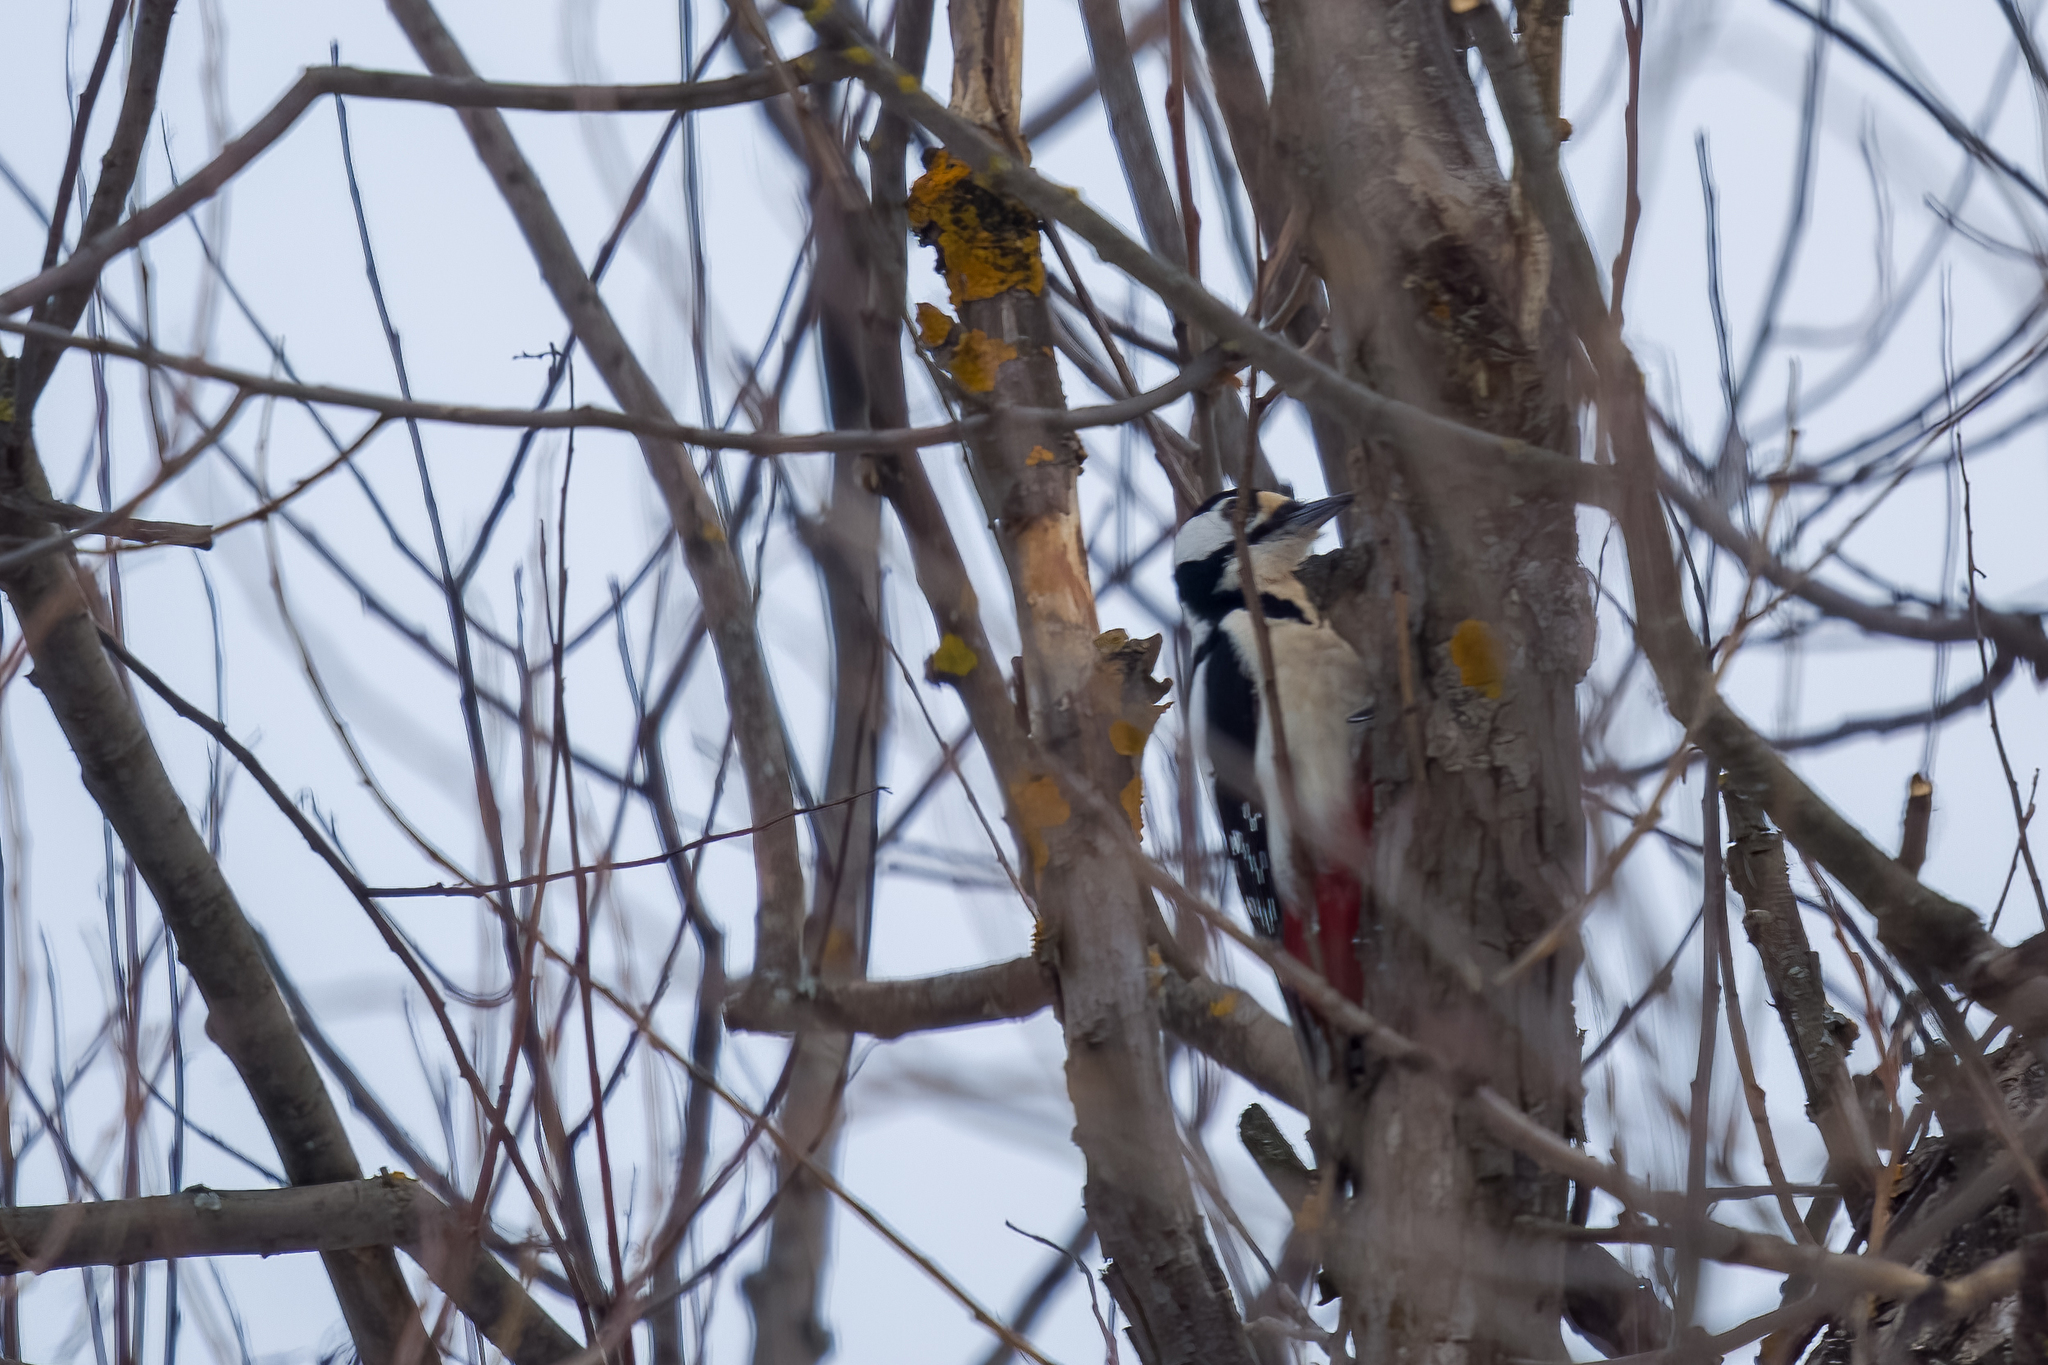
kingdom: Animalia
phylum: Chordata
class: Aves
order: Piciformes
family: Picidae
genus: Dendrocopos
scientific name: Dendrocopos major
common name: Great spotted woodpecker
